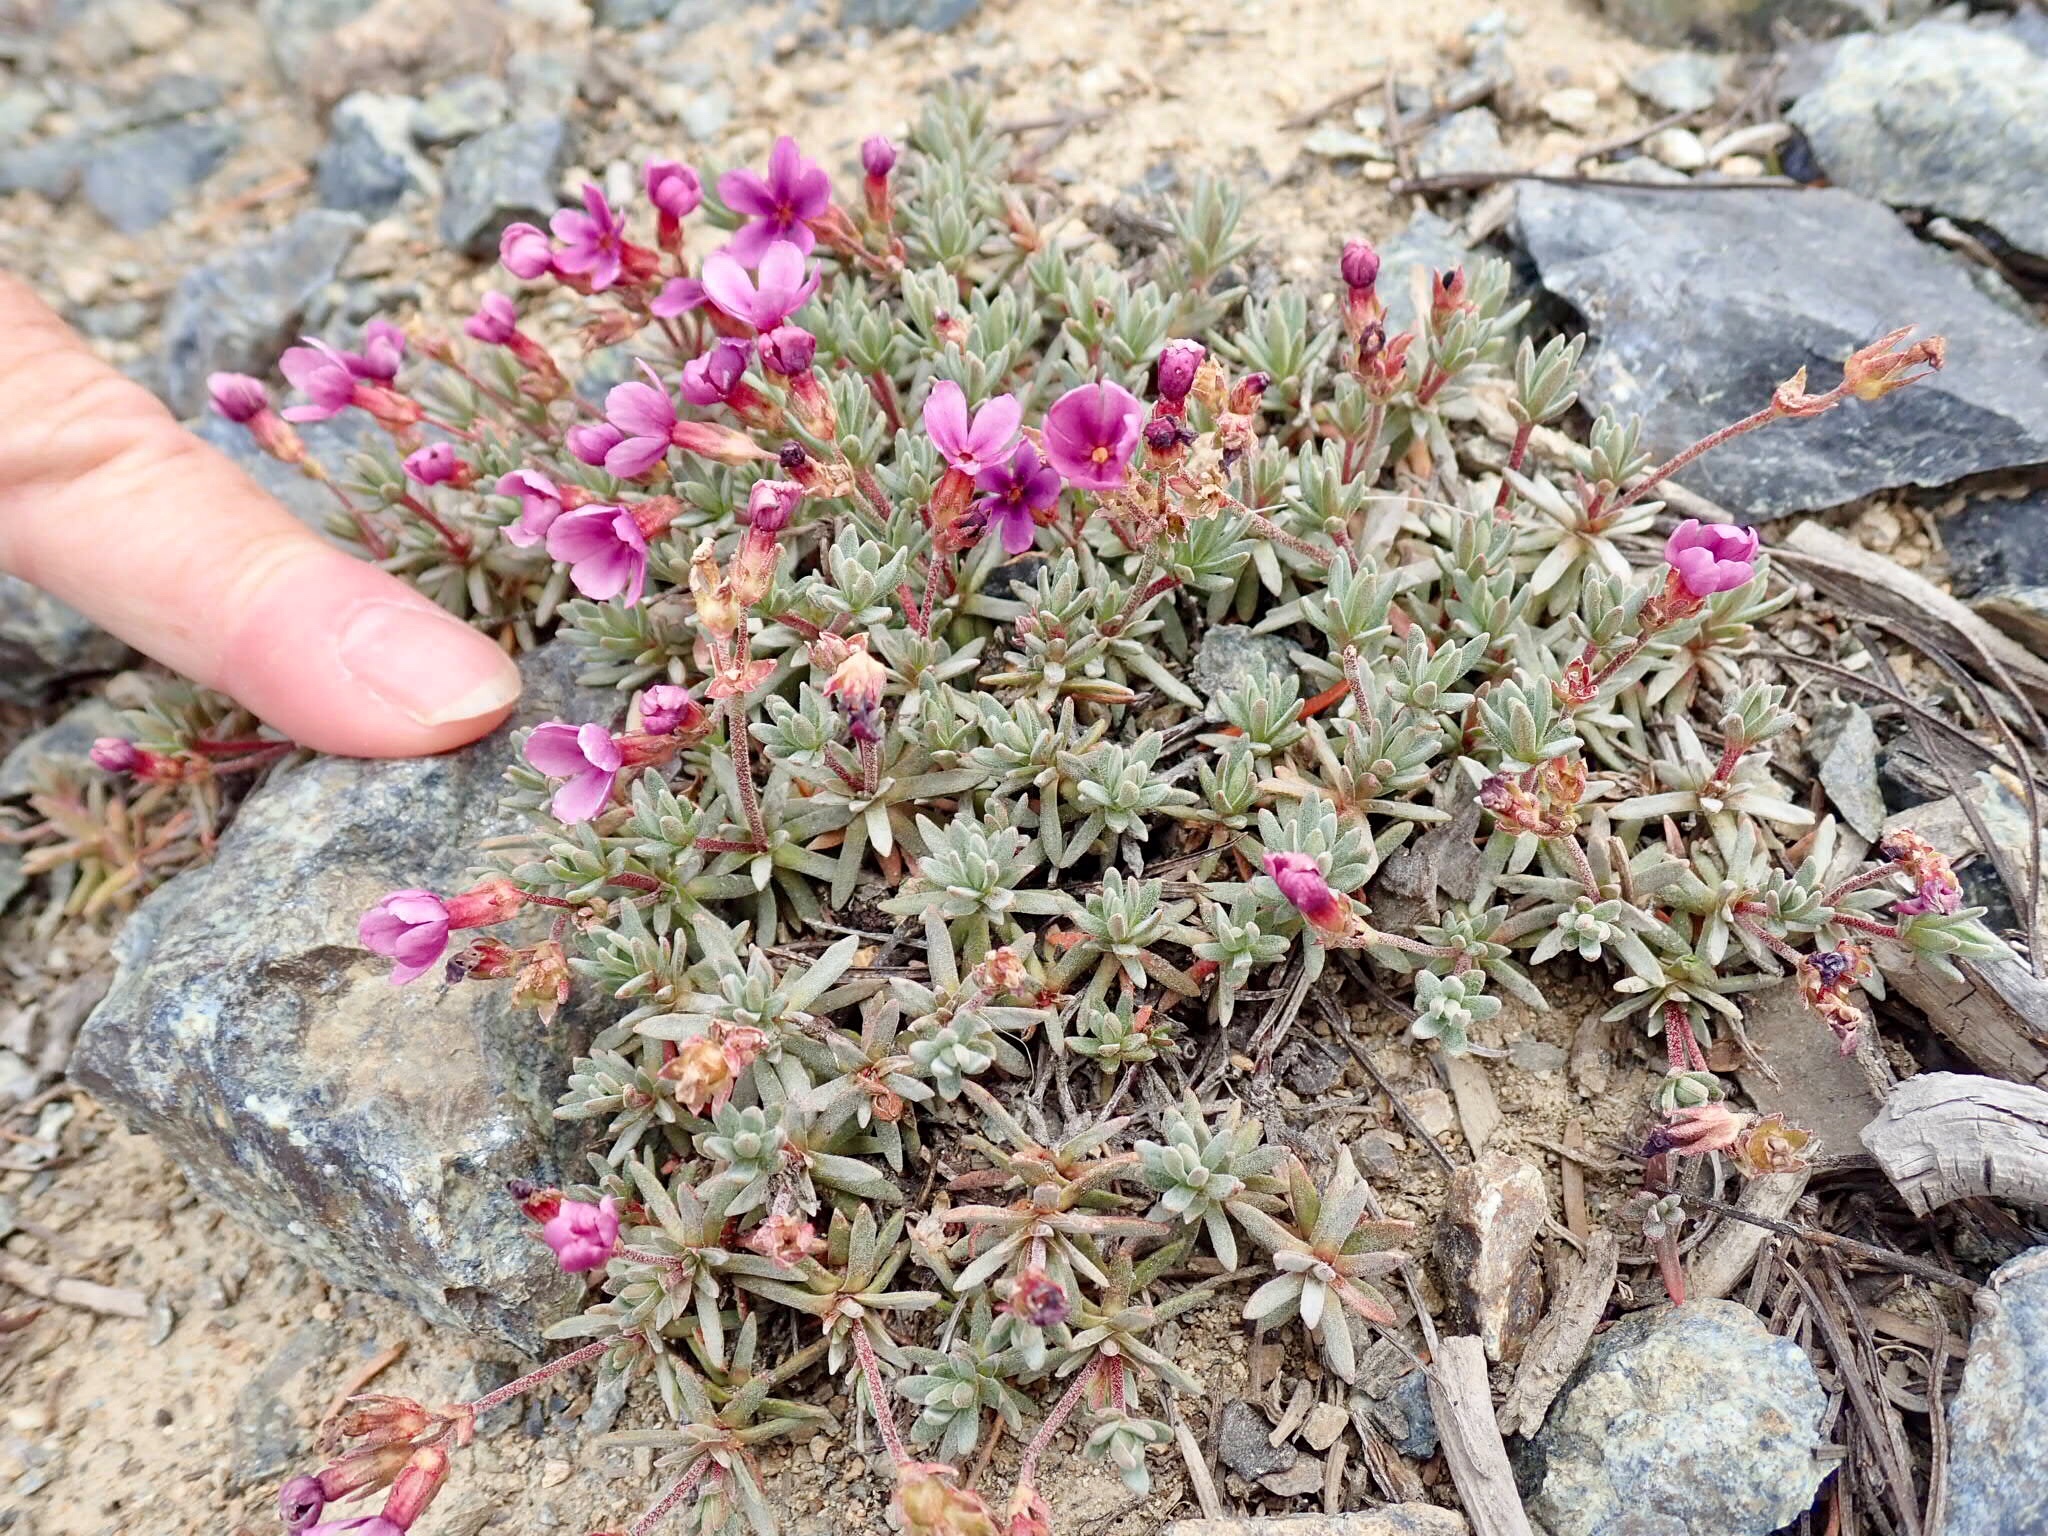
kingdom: Plantae
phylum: Tracheophyta
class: Magnoliopsida
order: Ericales
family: Primulaceae
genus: Androsace
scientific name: Androsace nivalis
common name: Snow dwarf-primrose
